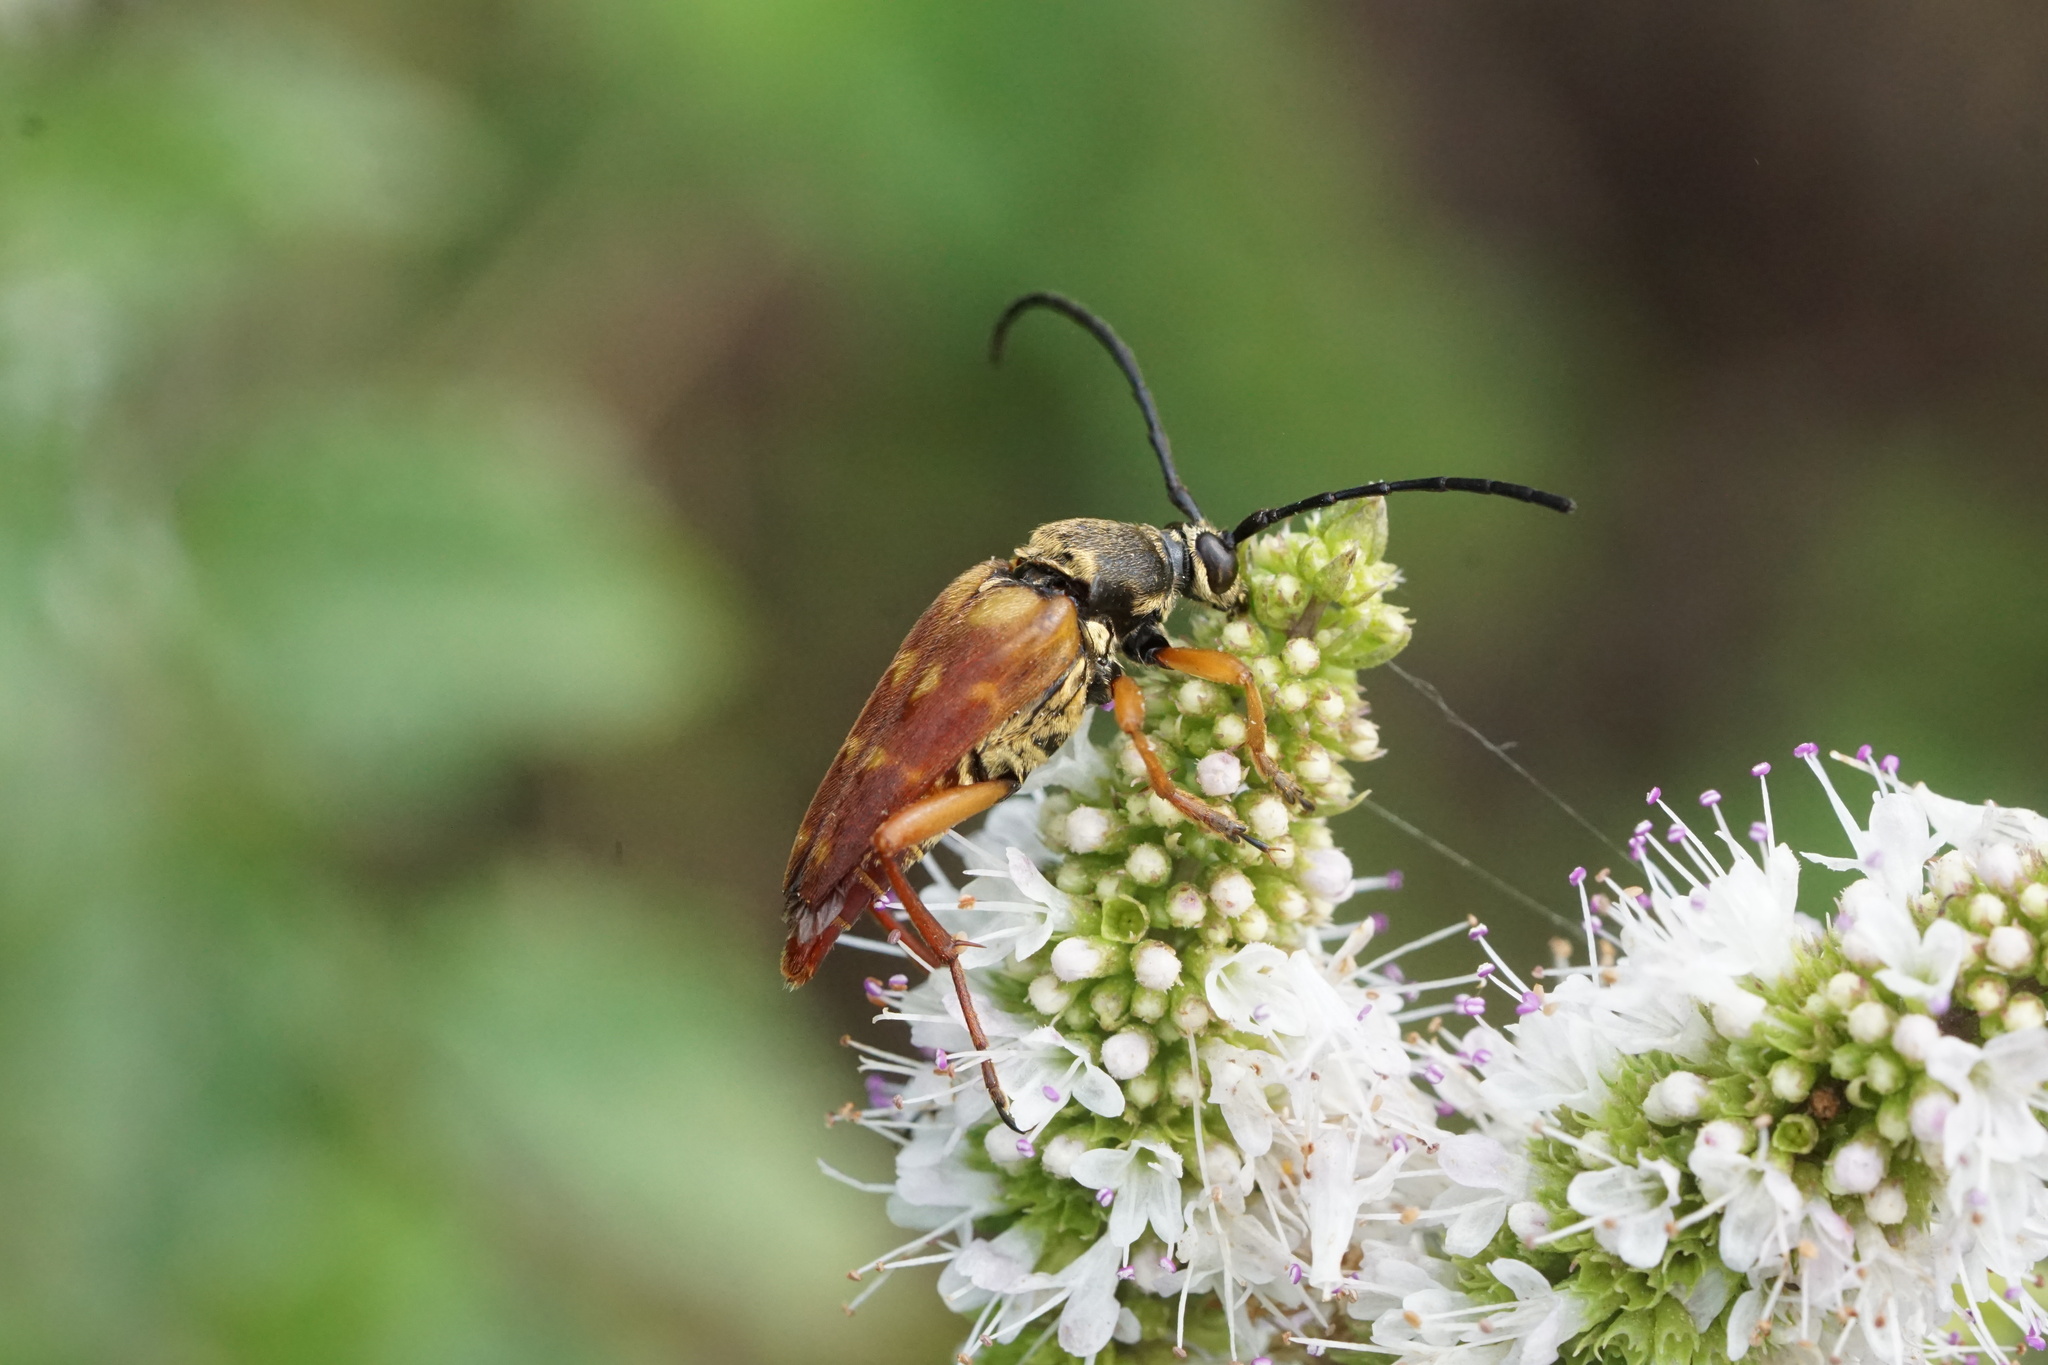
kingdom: Animalia
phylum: Arthropoda
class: Insecta
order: Coleoptera
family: Cerambycidae
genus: Typocerus
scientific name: Typocerus velutinus
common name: Banded longhorn beetle
